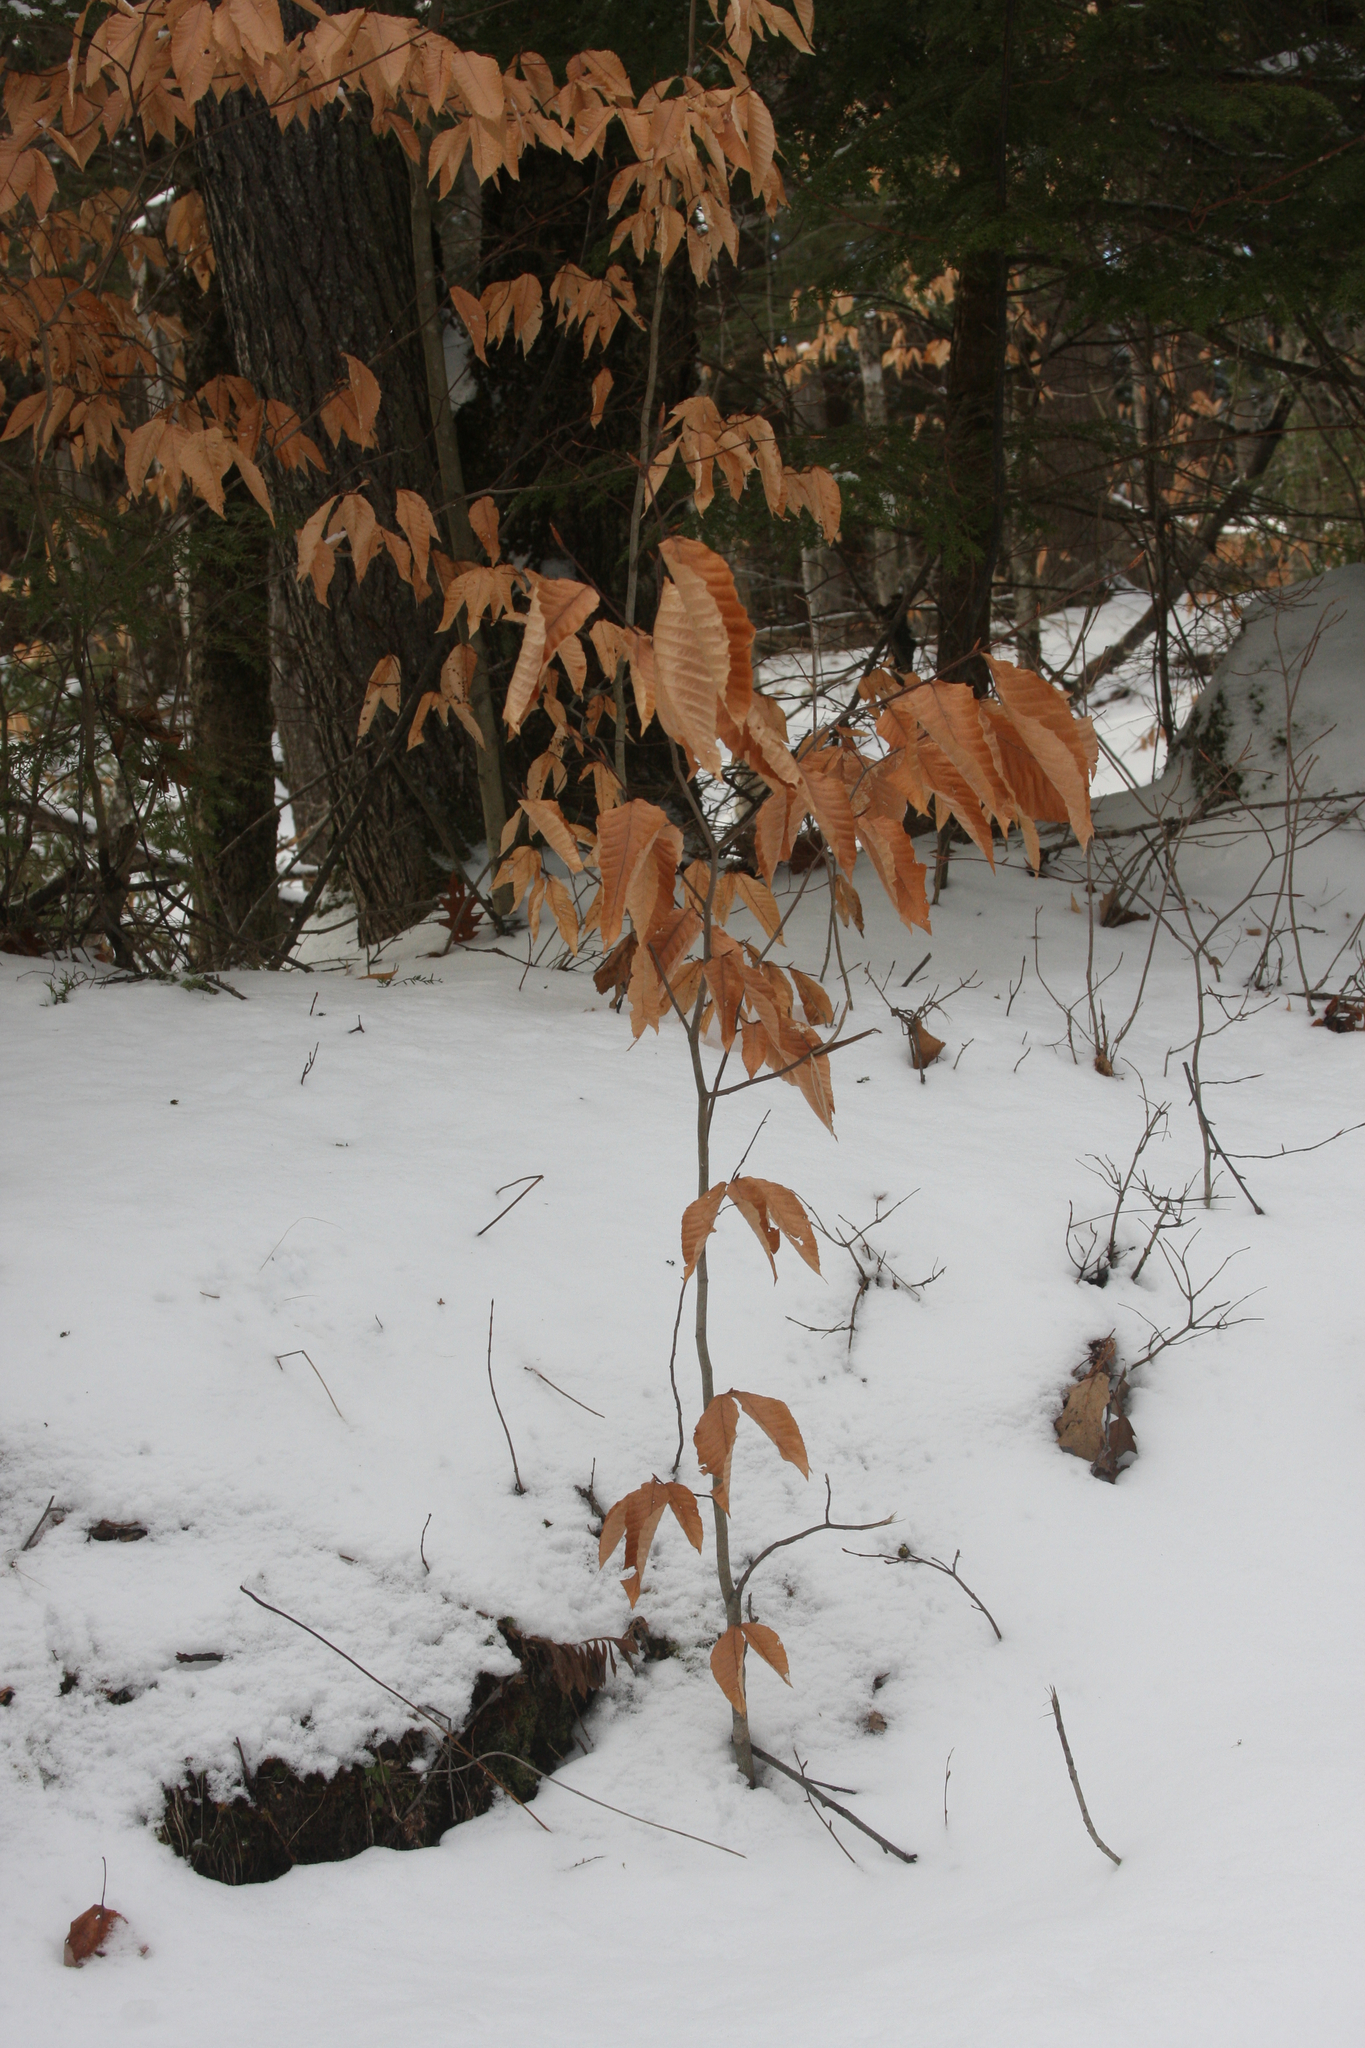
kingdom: Plantae
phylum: Tracheophyta
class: Magnoliopsida
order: Fagales
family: Fagaceae
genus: Fagus
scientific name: Fagus grandifolia
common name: American beech
